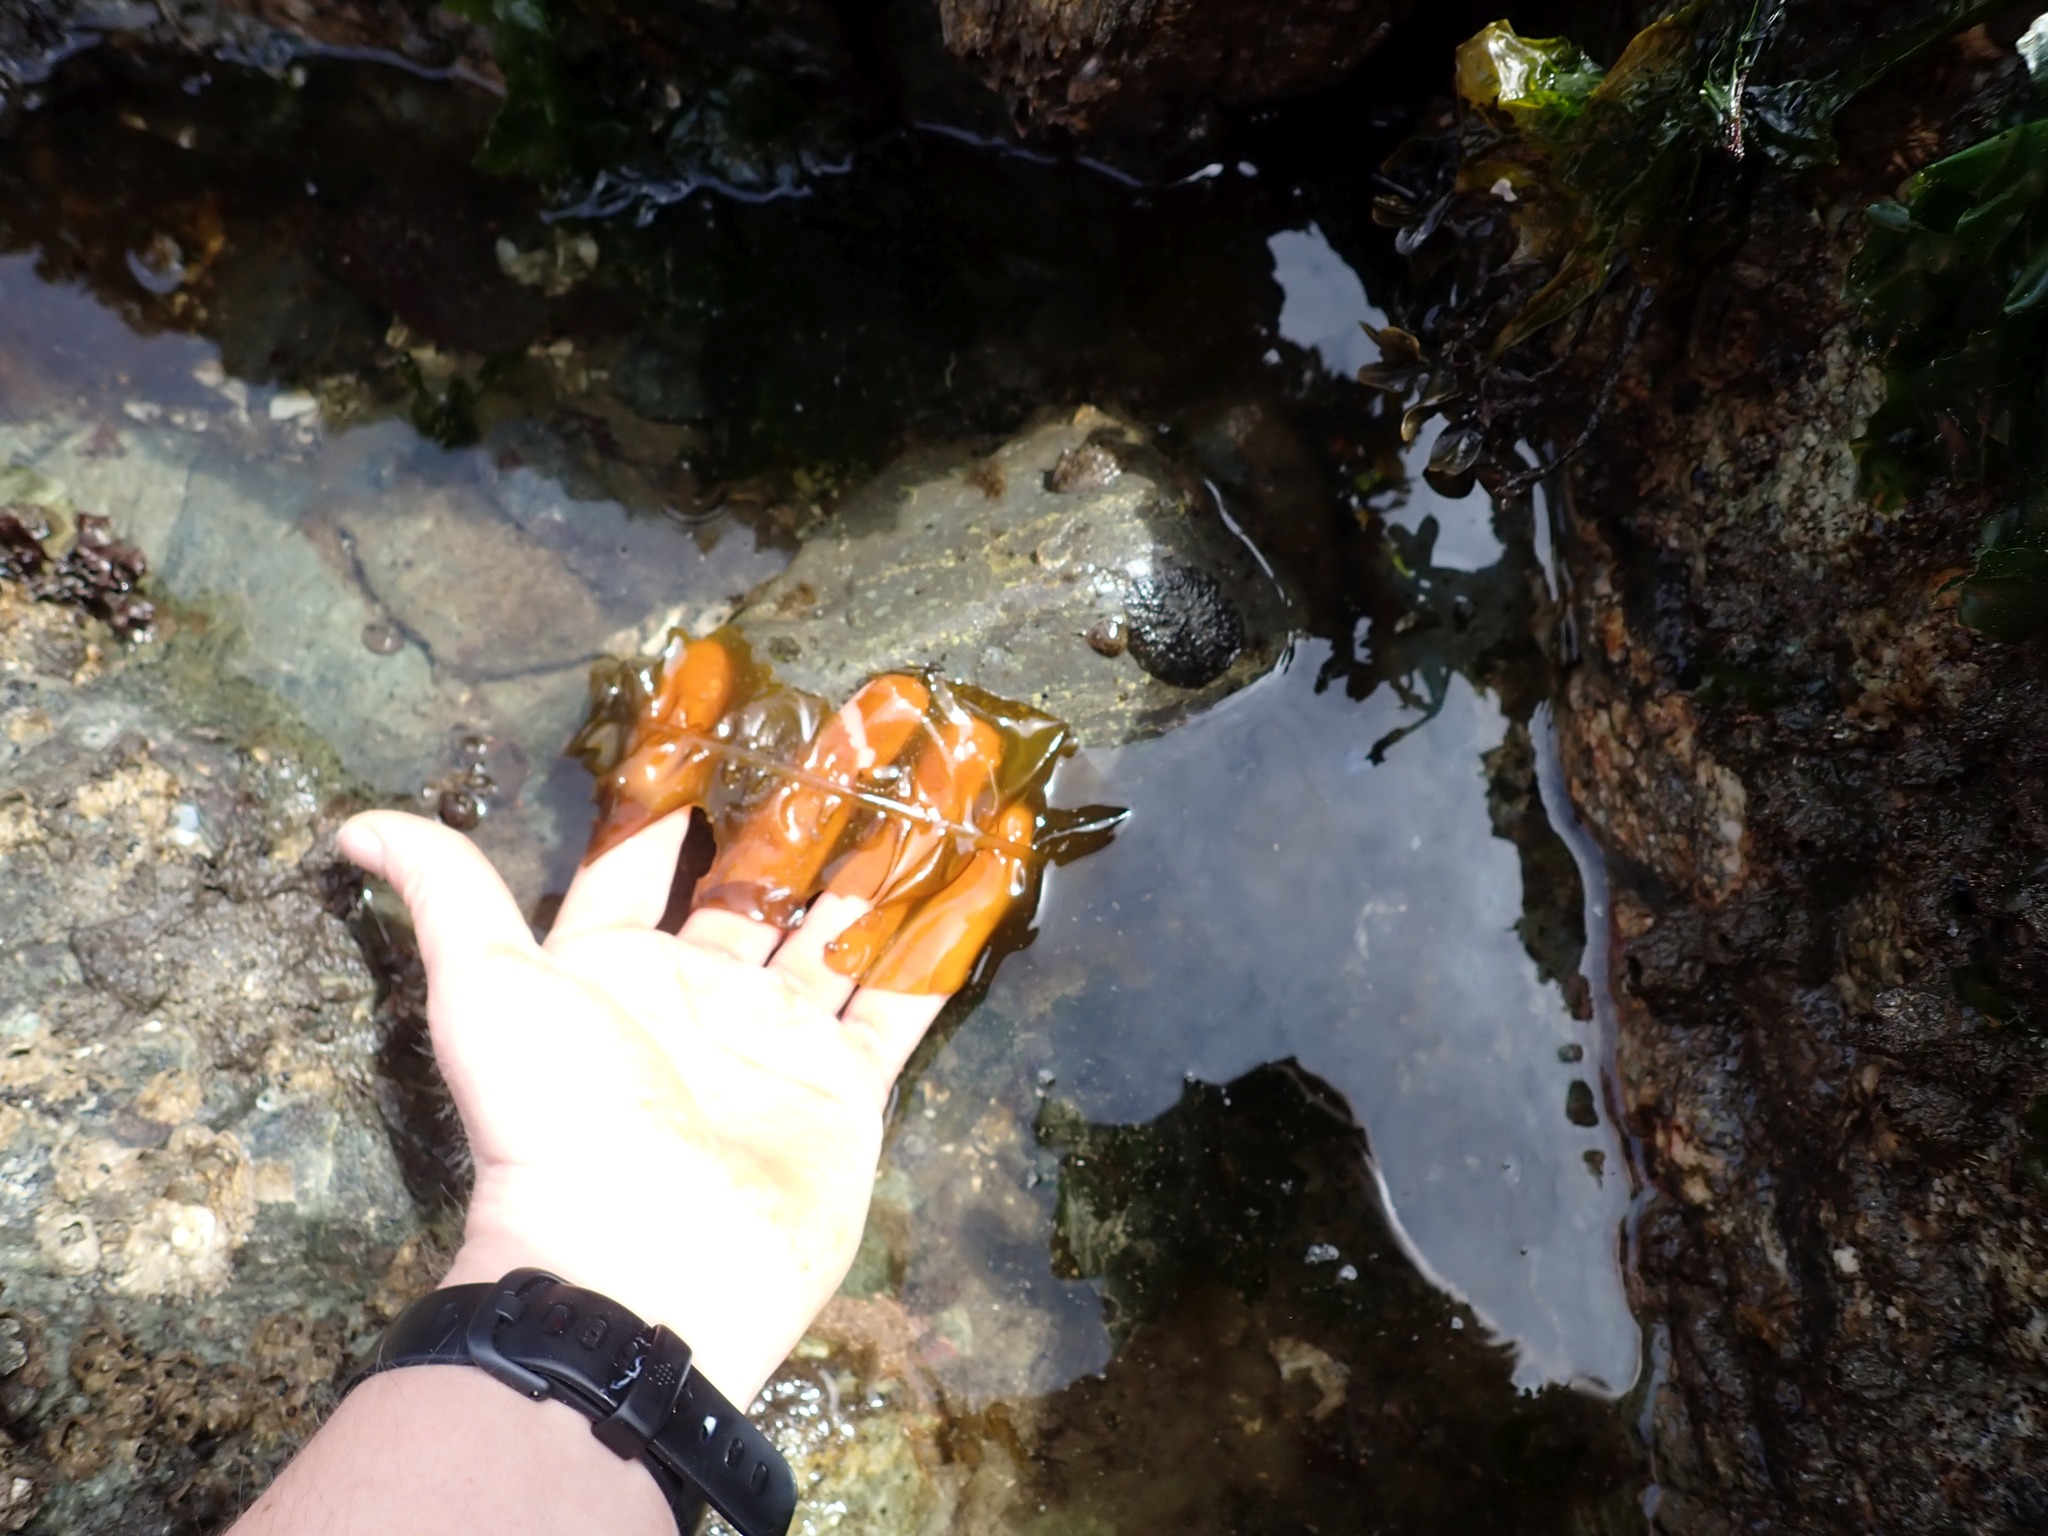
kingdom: Chromista
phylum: Ochrophyta
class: Phaeophyceae
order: Laminariales
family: Alariaceae
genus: Alaria
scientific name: Alaria marginata
